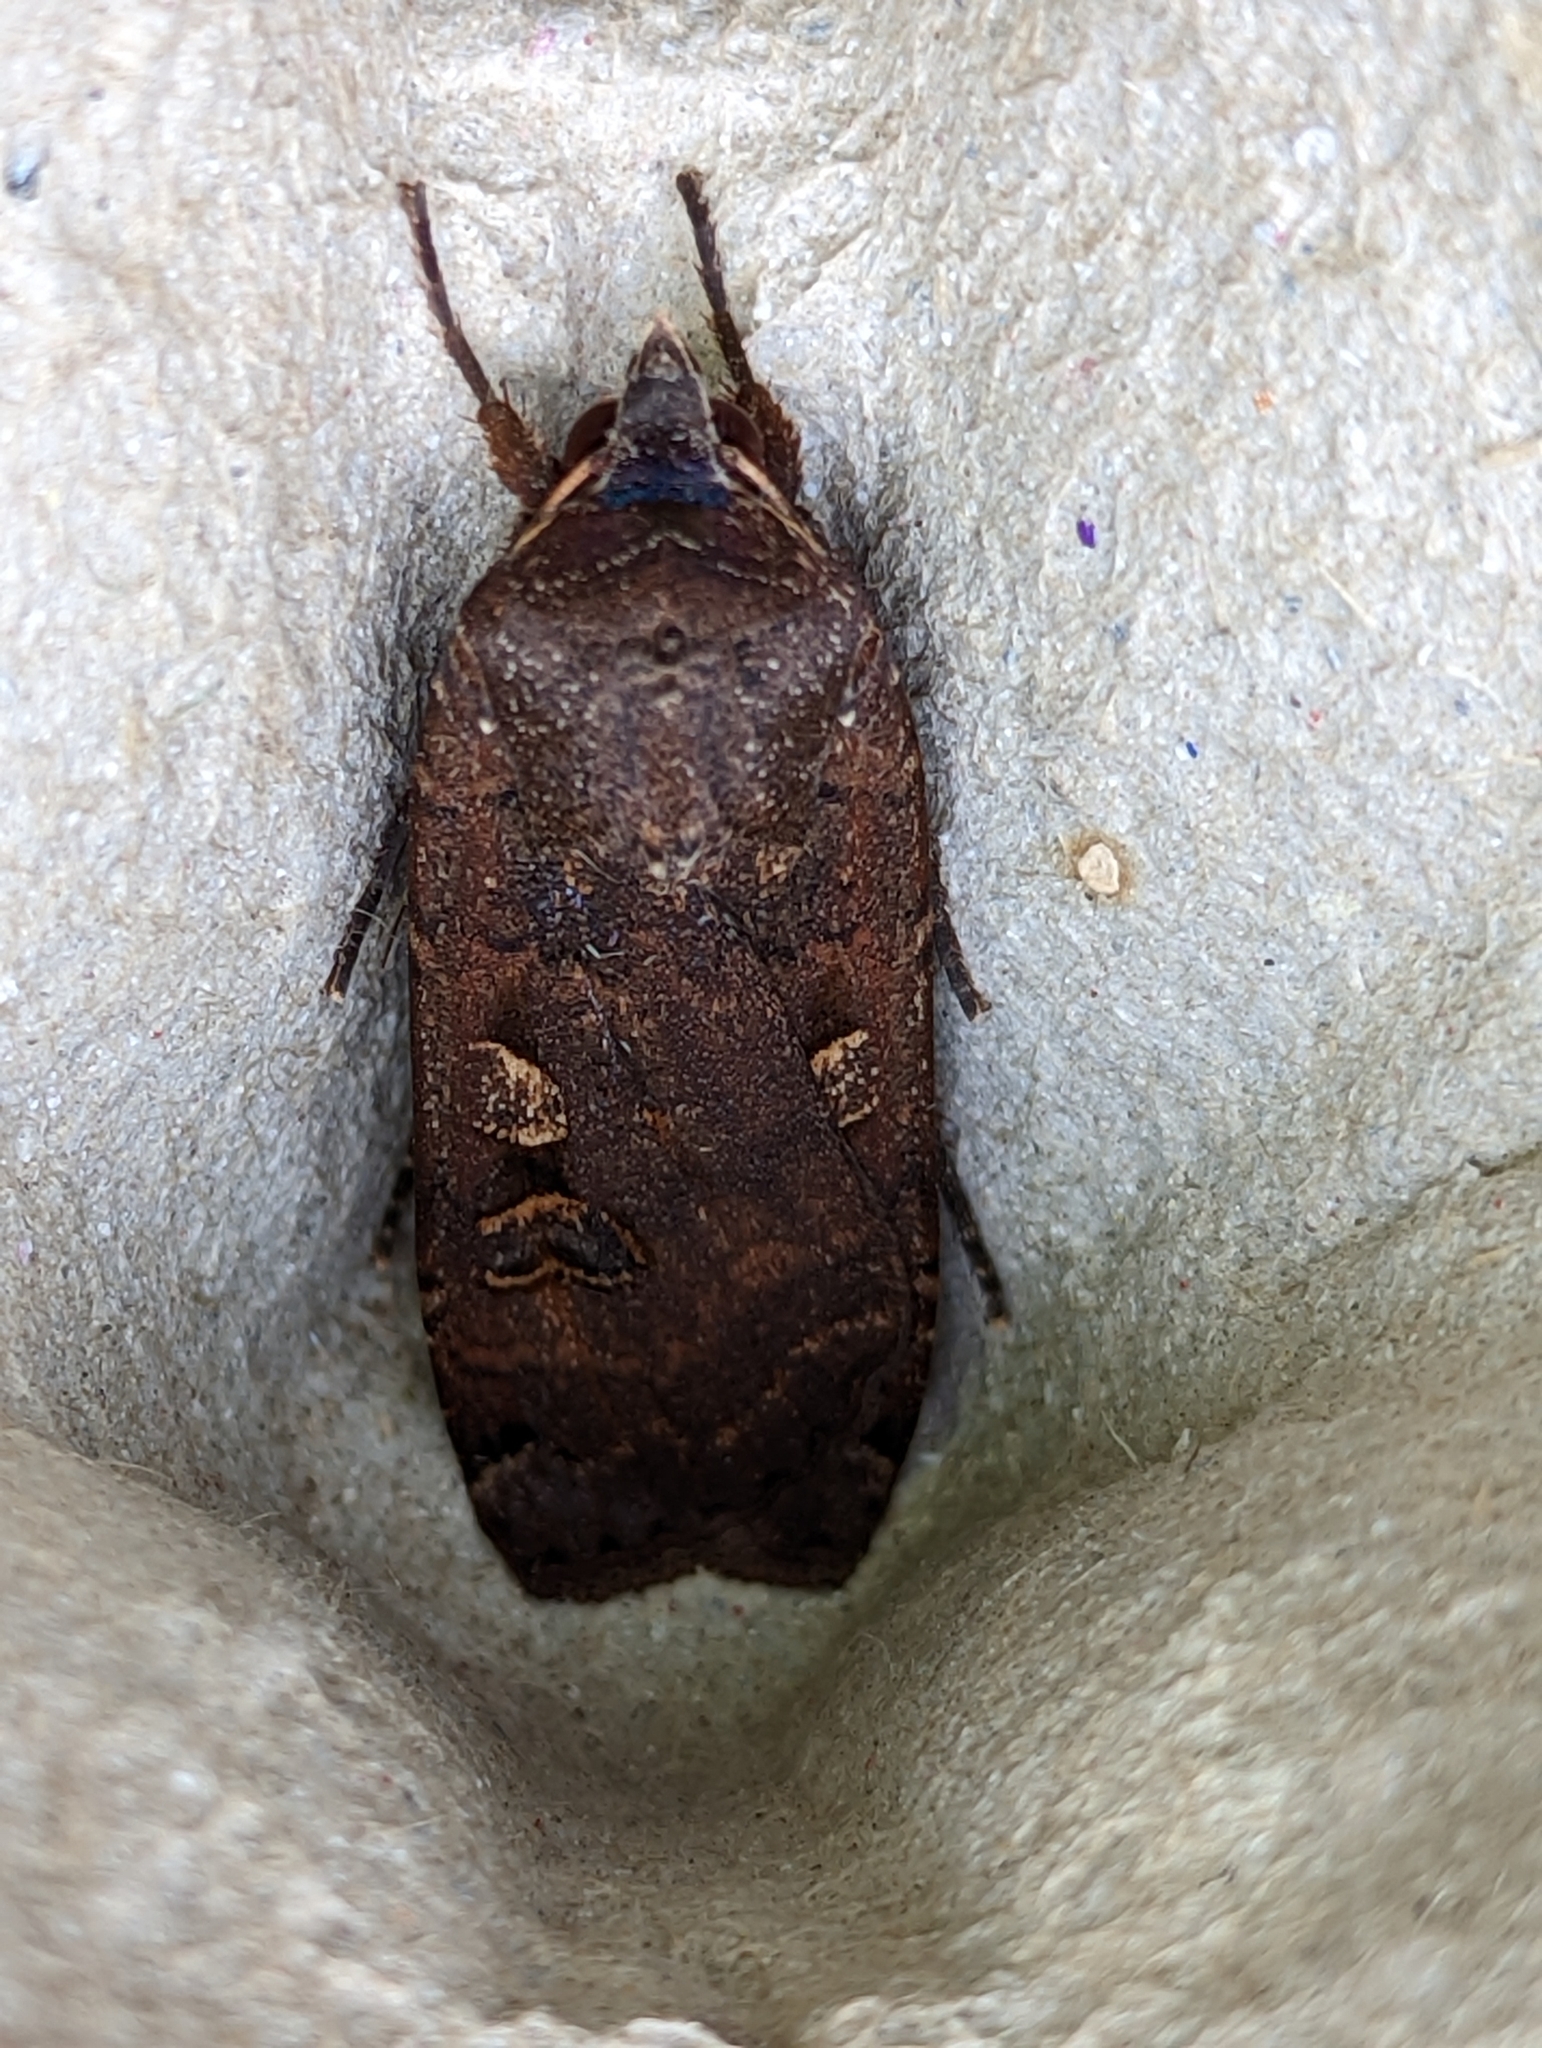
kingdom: Animalia
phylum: Arthropoda
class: Insecta
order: Lepidoptera
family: Noctuidae
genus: Noctua
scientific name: Noctua pronuba
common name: Large yellow underwing
